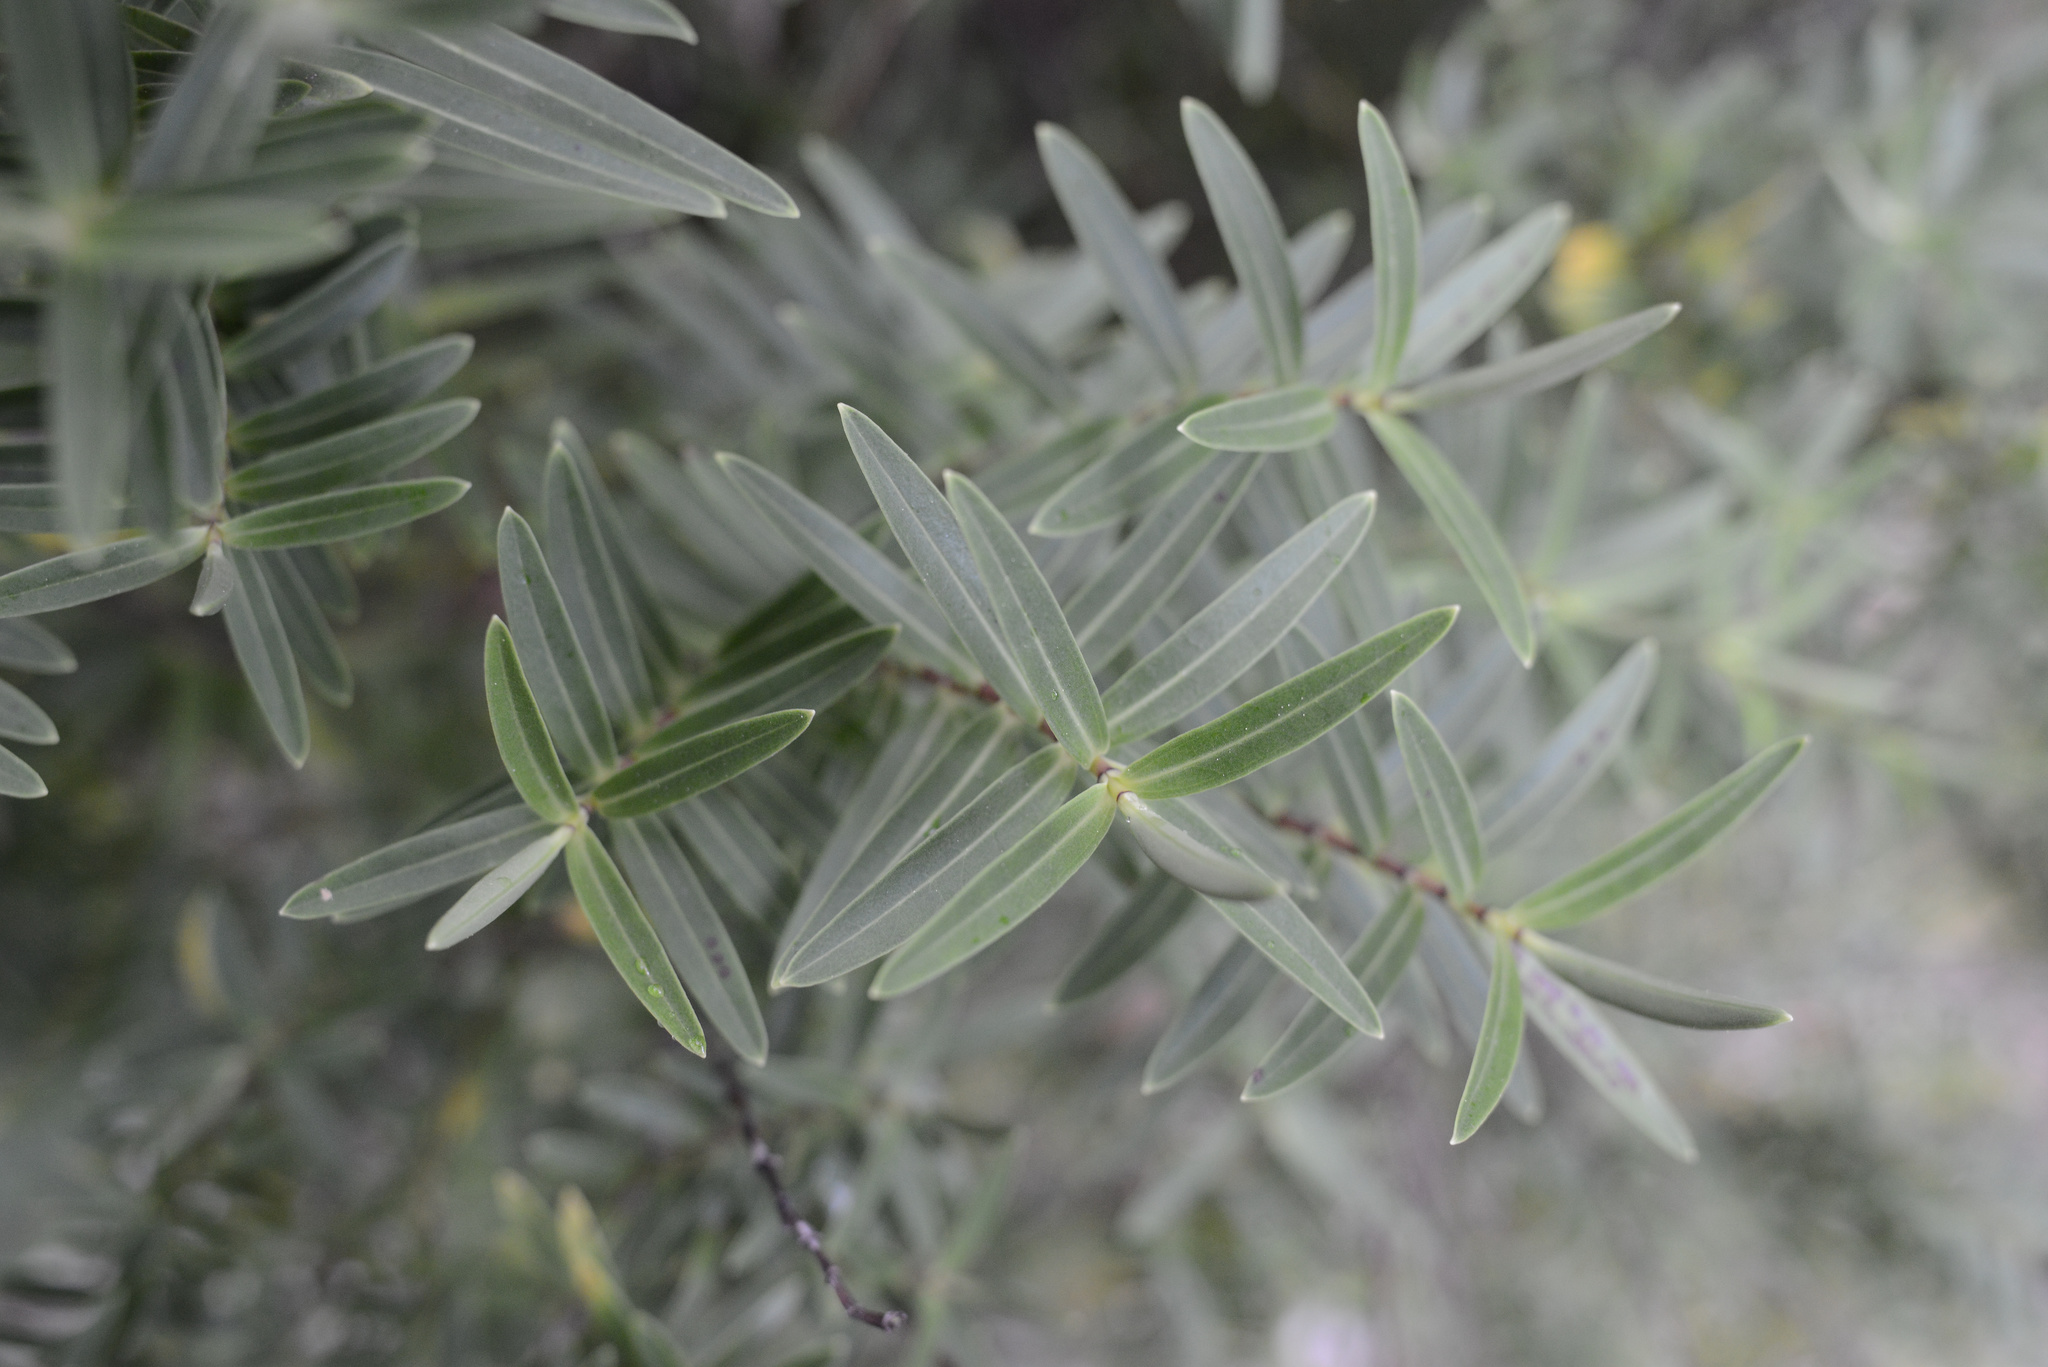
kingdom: Plantae
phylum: Tracheophyta
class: Magnoliopsida
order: Lamiales
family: Plantaginaceae
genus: Veronica
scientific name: Veronica strictissima
